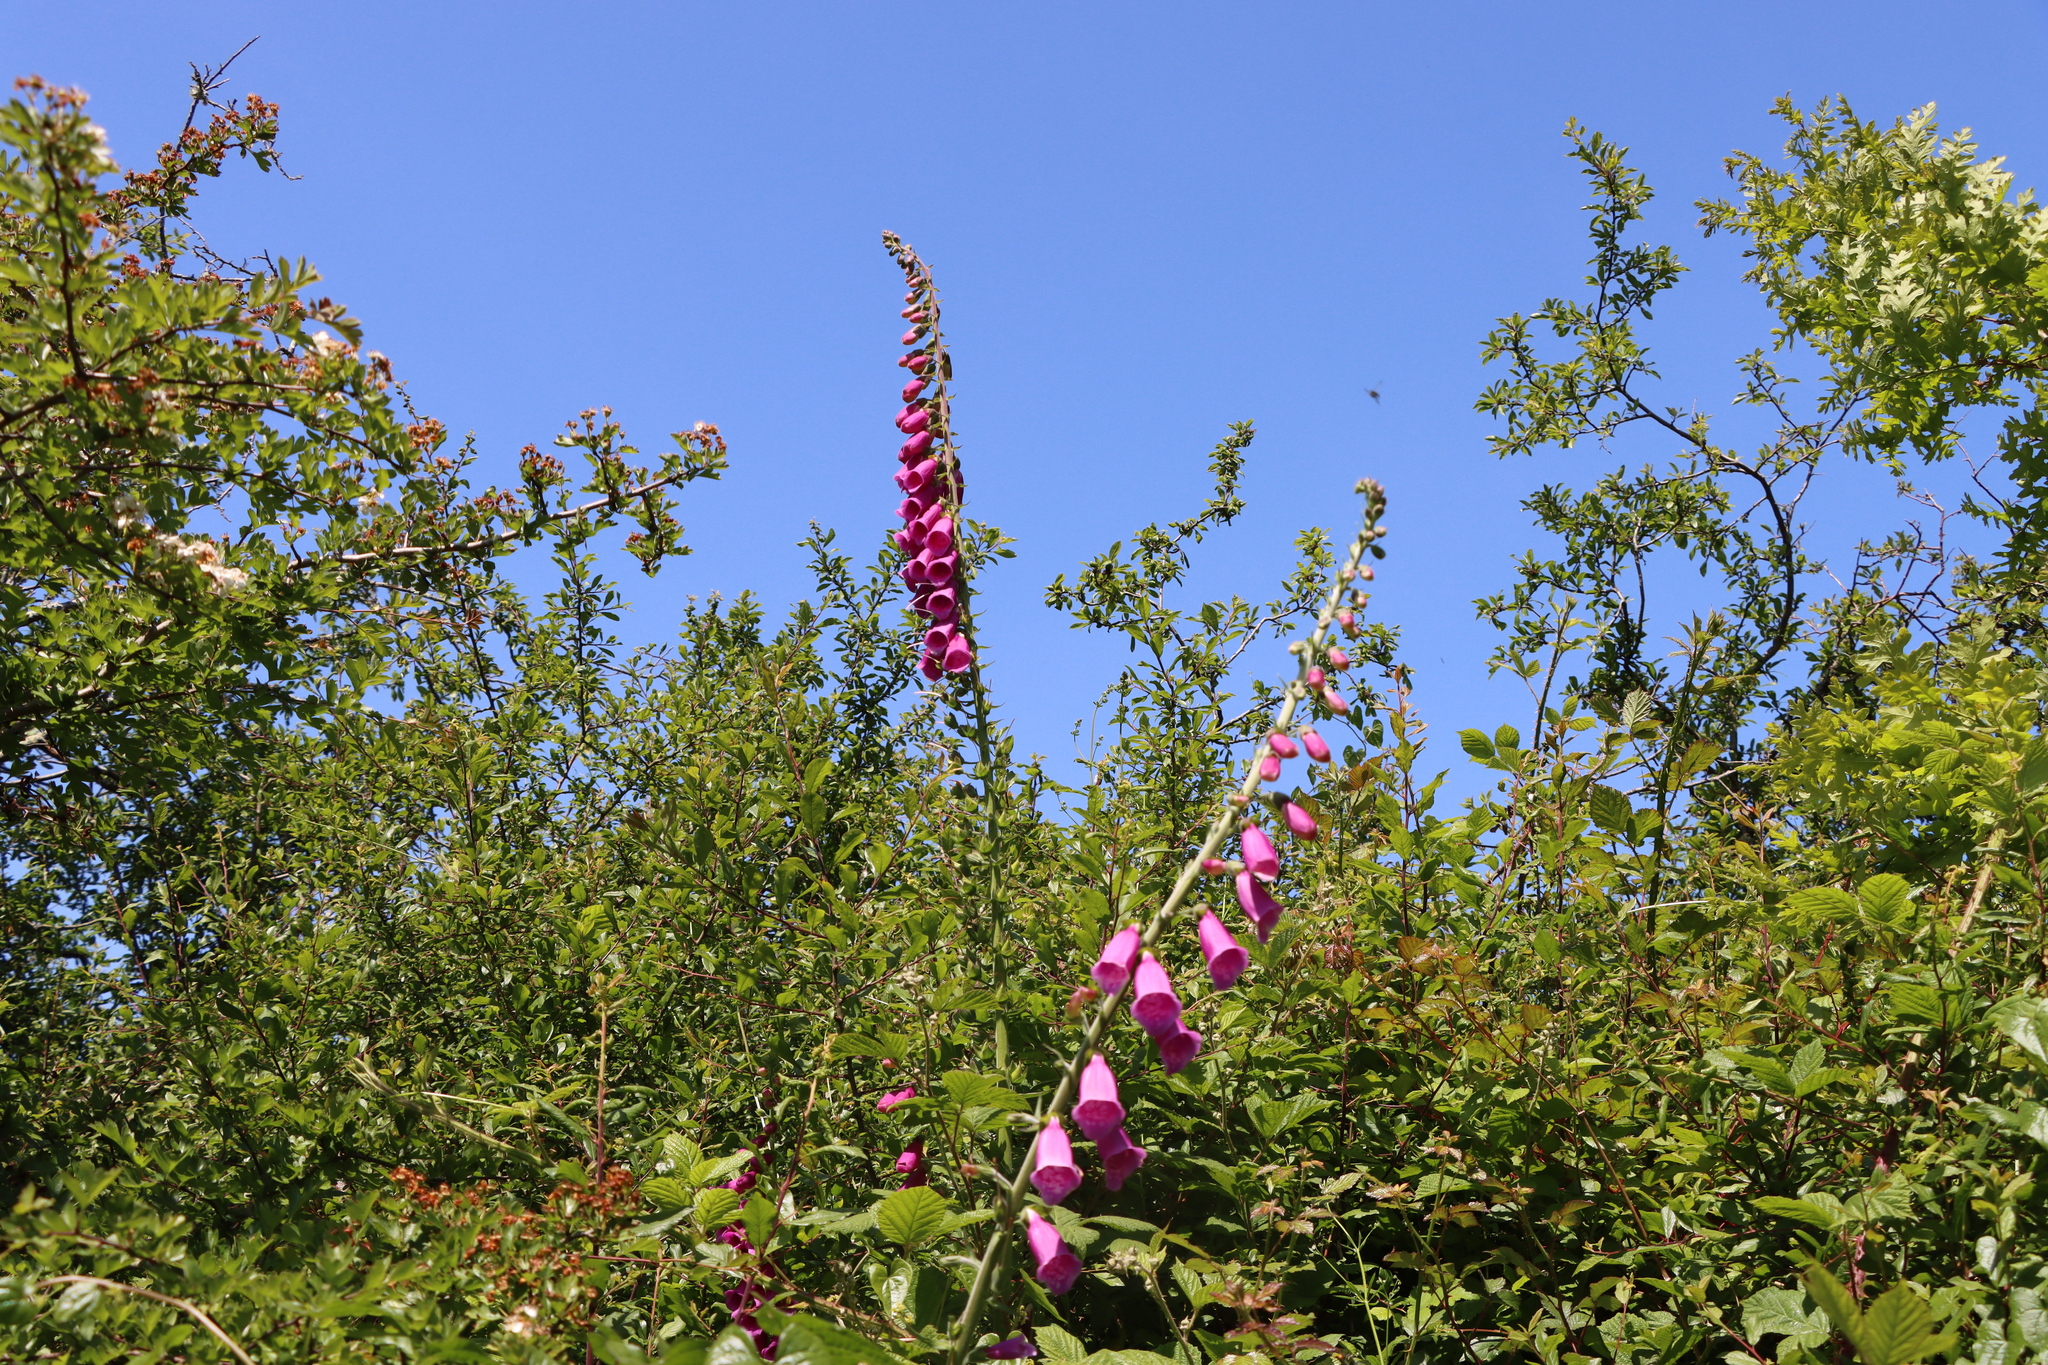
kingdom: Plantae
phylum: Tracheophyta
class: Magnoliopsida
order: Lamiales
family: Plantaginaceae
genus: Digitalis
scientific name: Digitalis purpurea
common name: Foxglove
